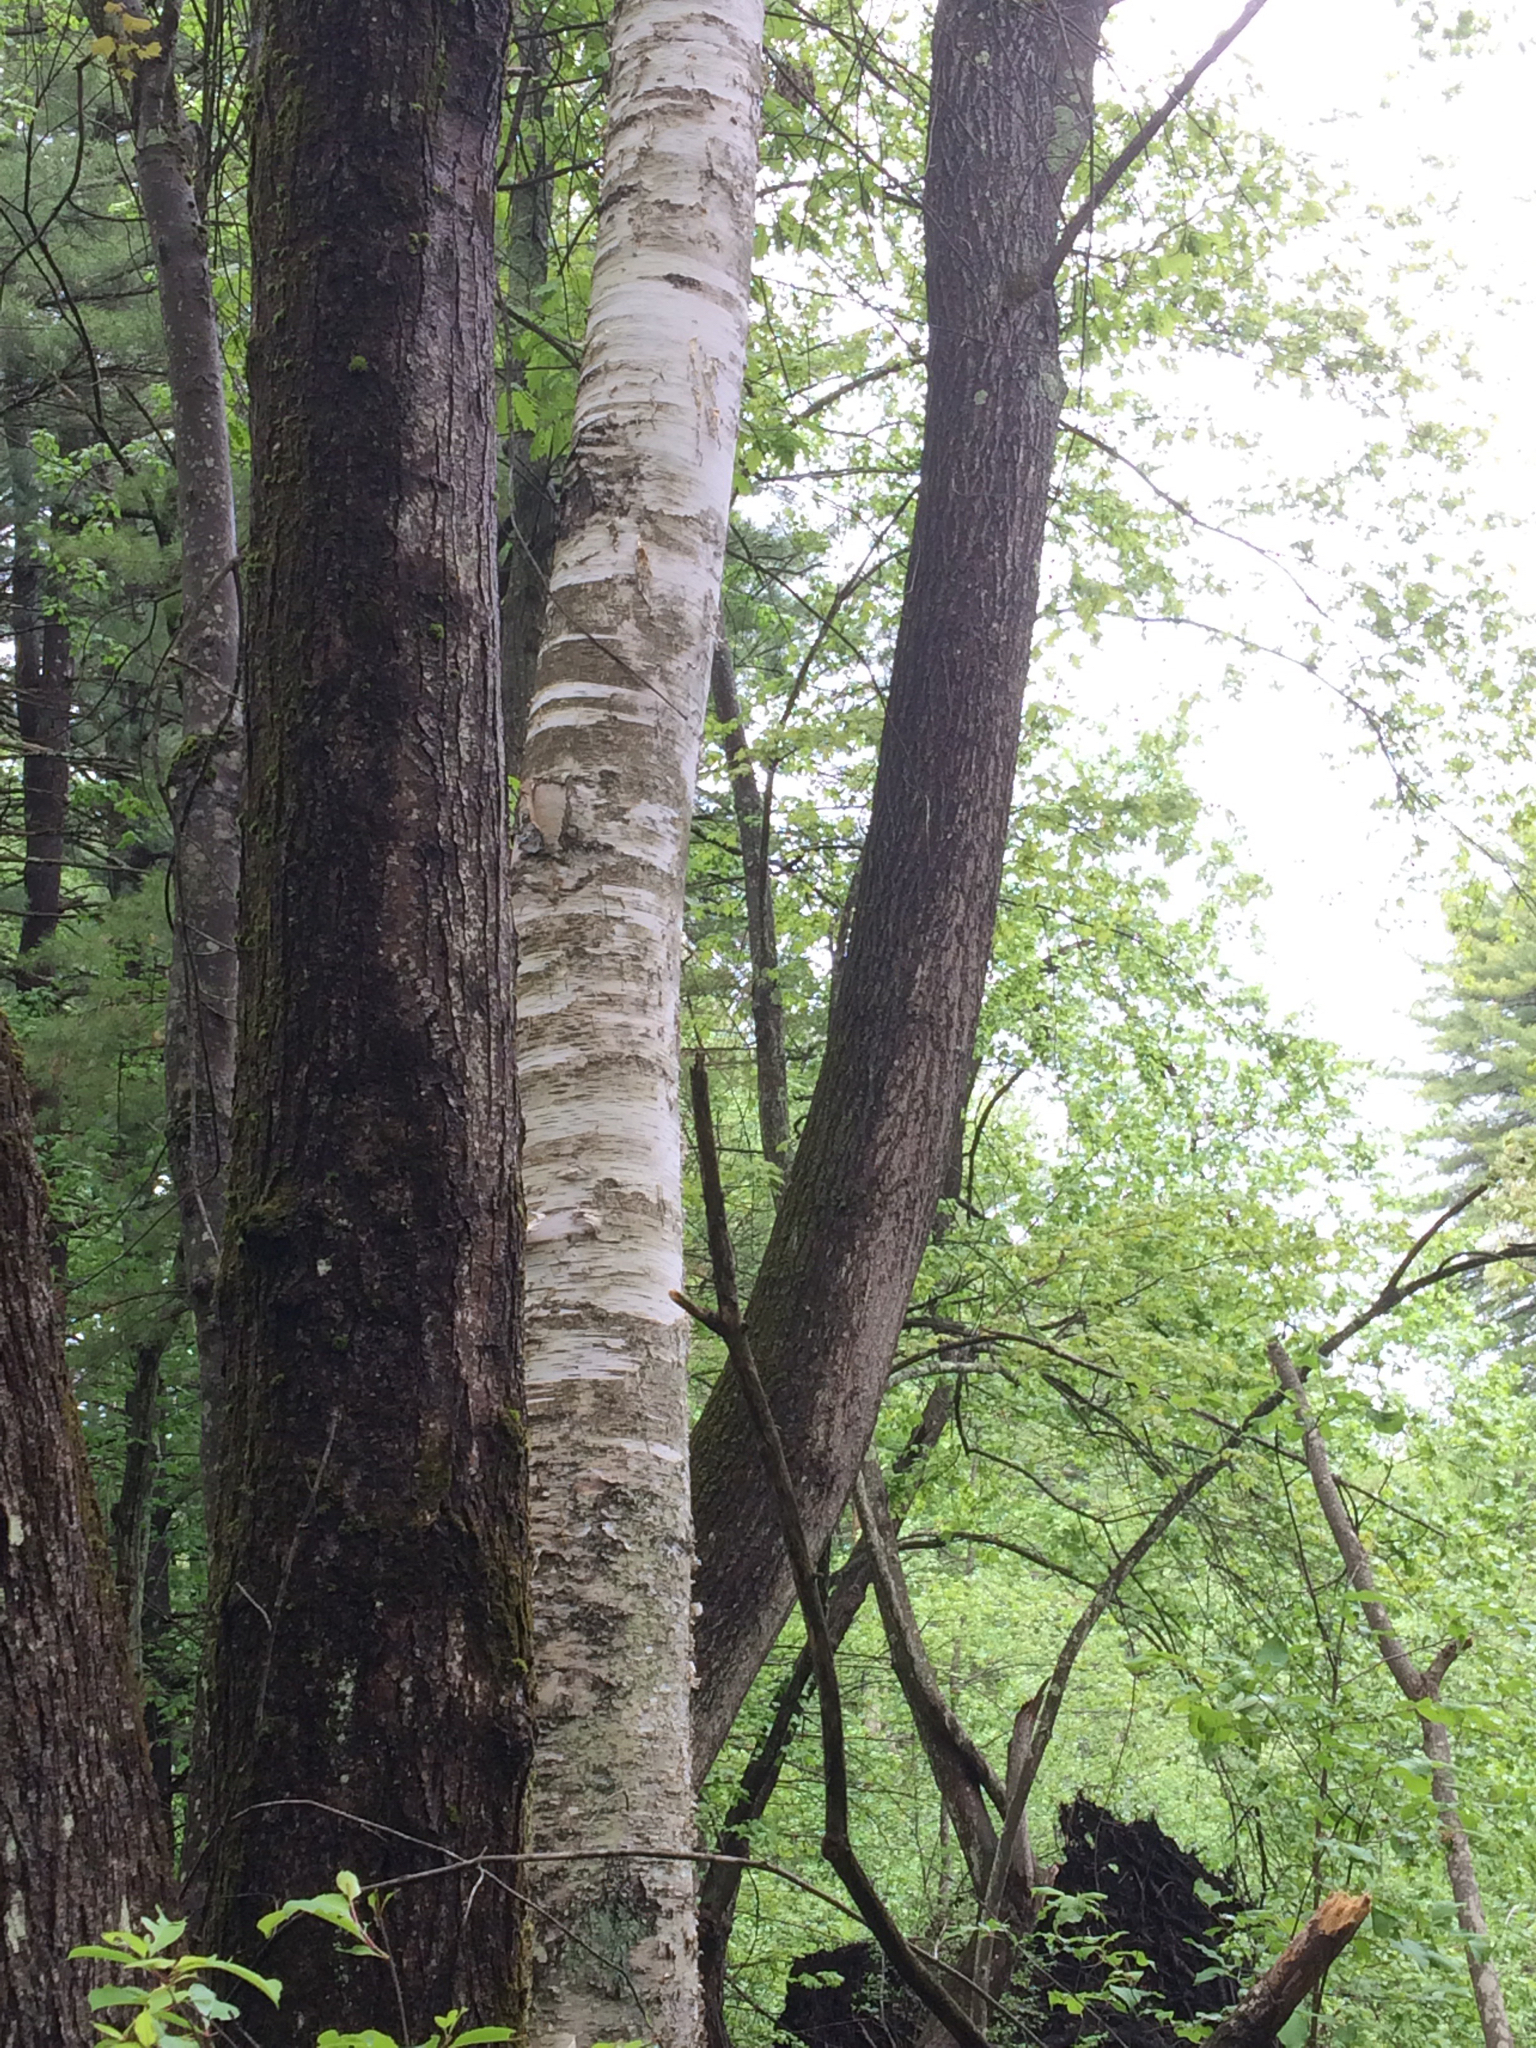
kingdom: Plantae
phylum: Tracheophyta
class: Magnoliopsida
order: Fagales
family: Betulaceae
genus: Betula
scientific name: Betula papyrifera
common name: Paper birch
